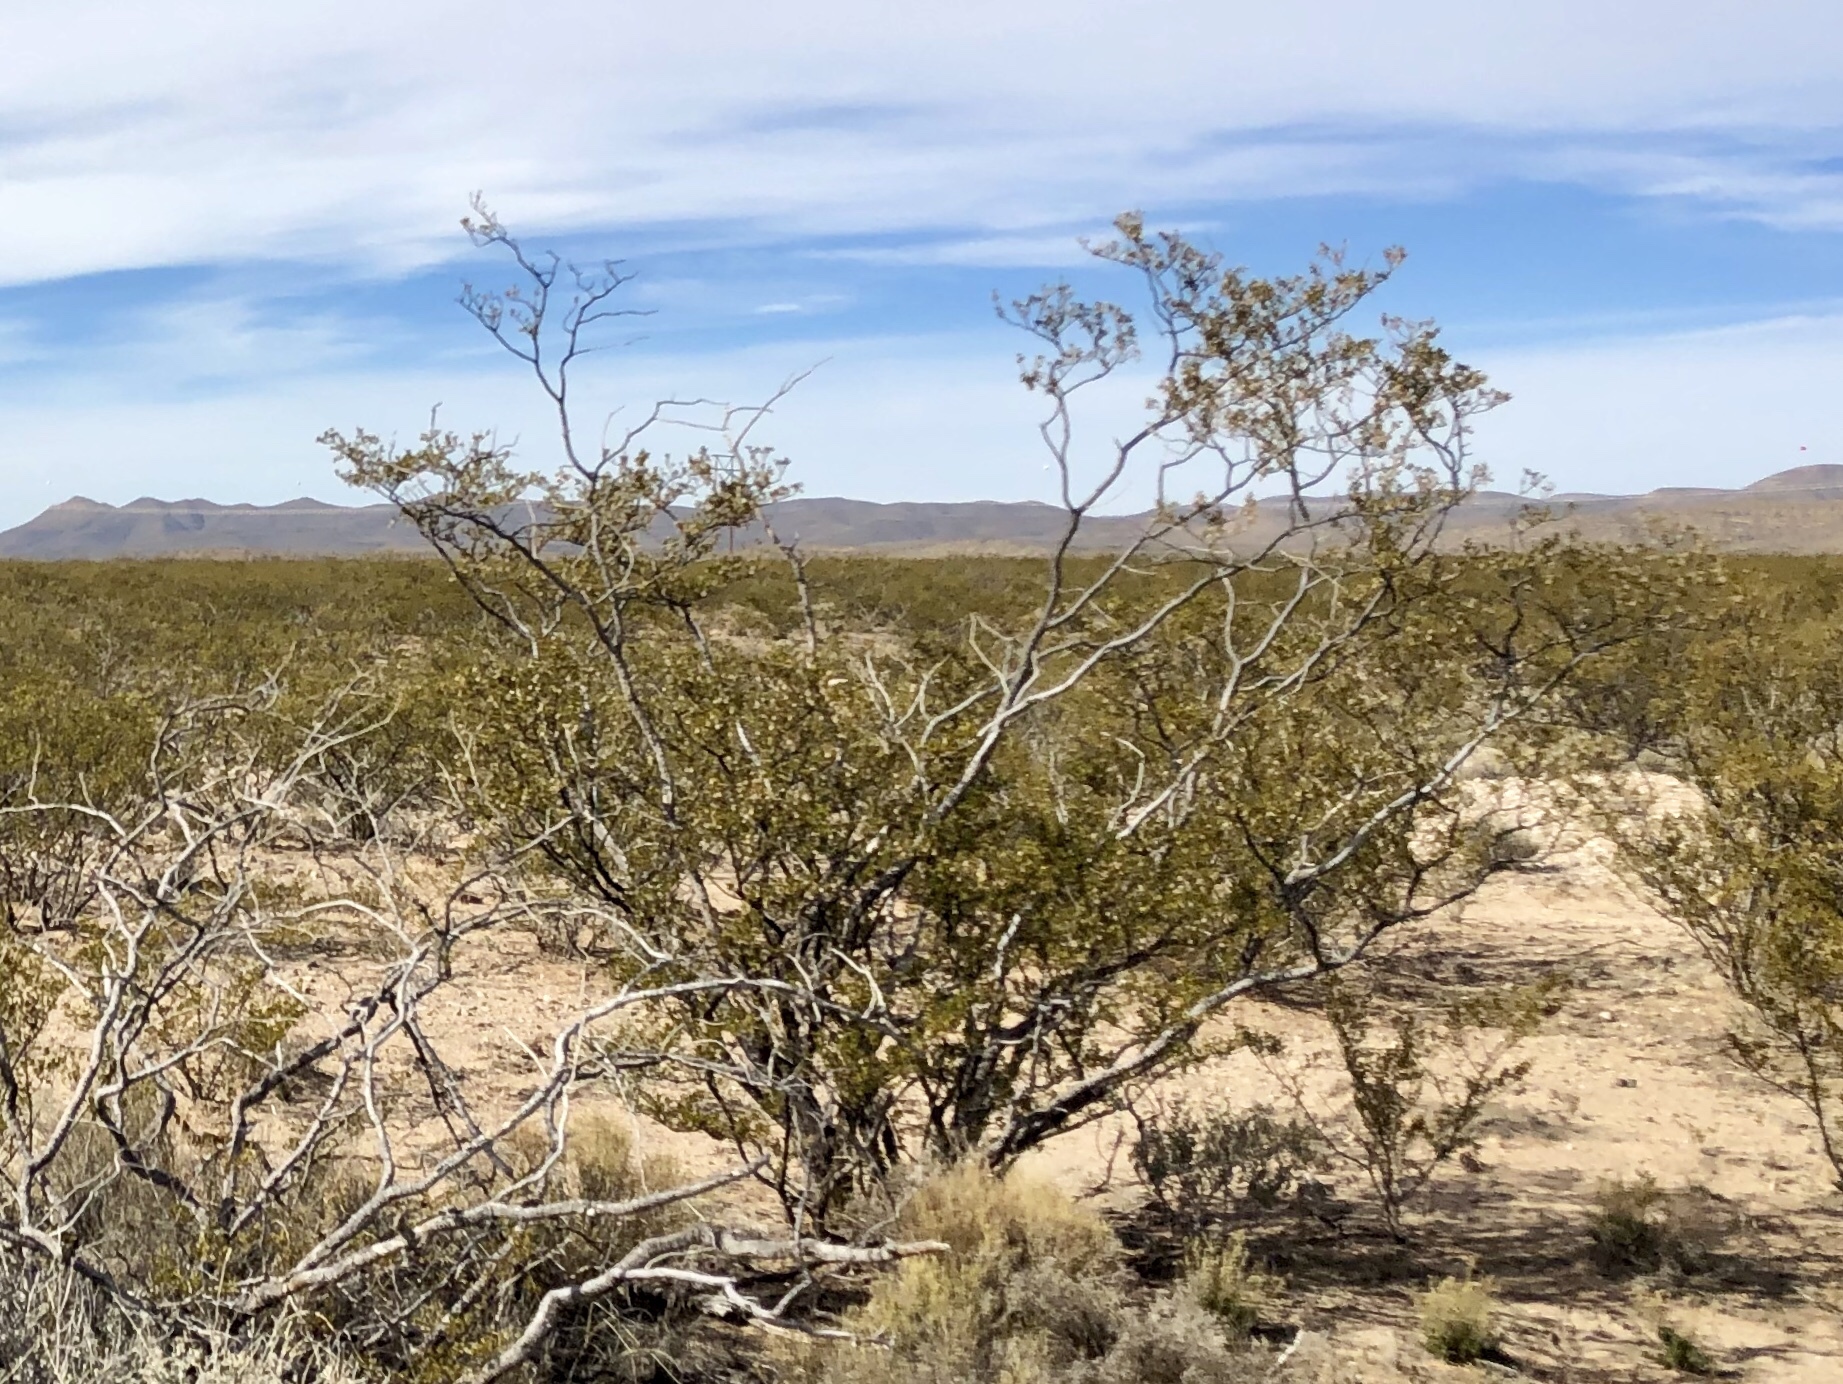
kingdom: Plantae
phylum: Tracheophyta
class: Magnoliopsida
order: Zygophyllales
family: Zygophyllaceae
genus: Larrea
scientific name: Larrea tridentata
